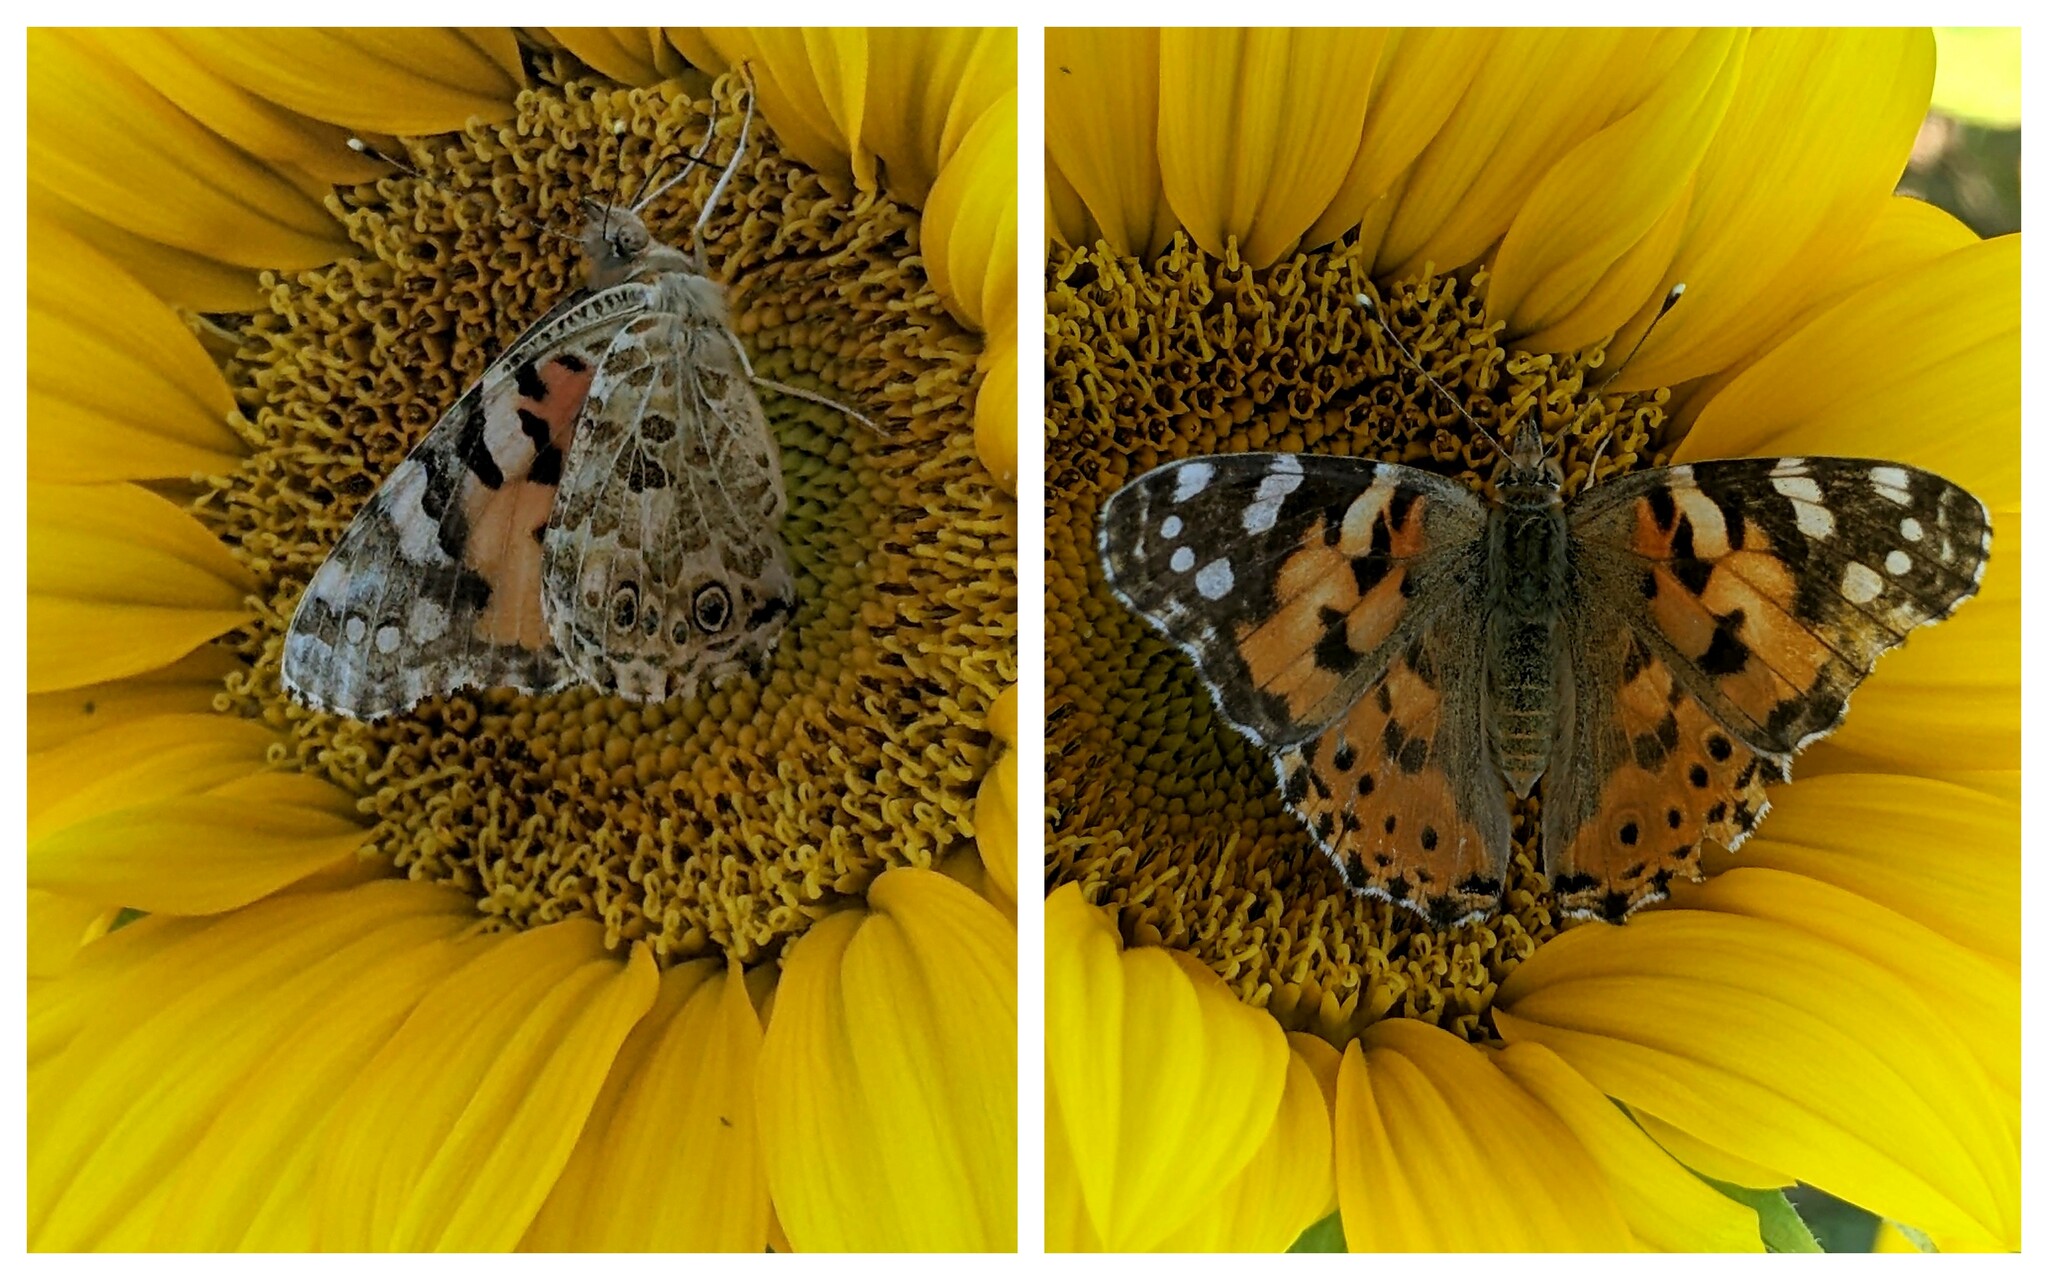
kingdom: Animalia
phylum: Arthropoda
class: Insecta
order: Lepidoptera
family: Nymphalidae
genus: Vanessa
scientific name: Vanessa cardui
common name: Painted lady
